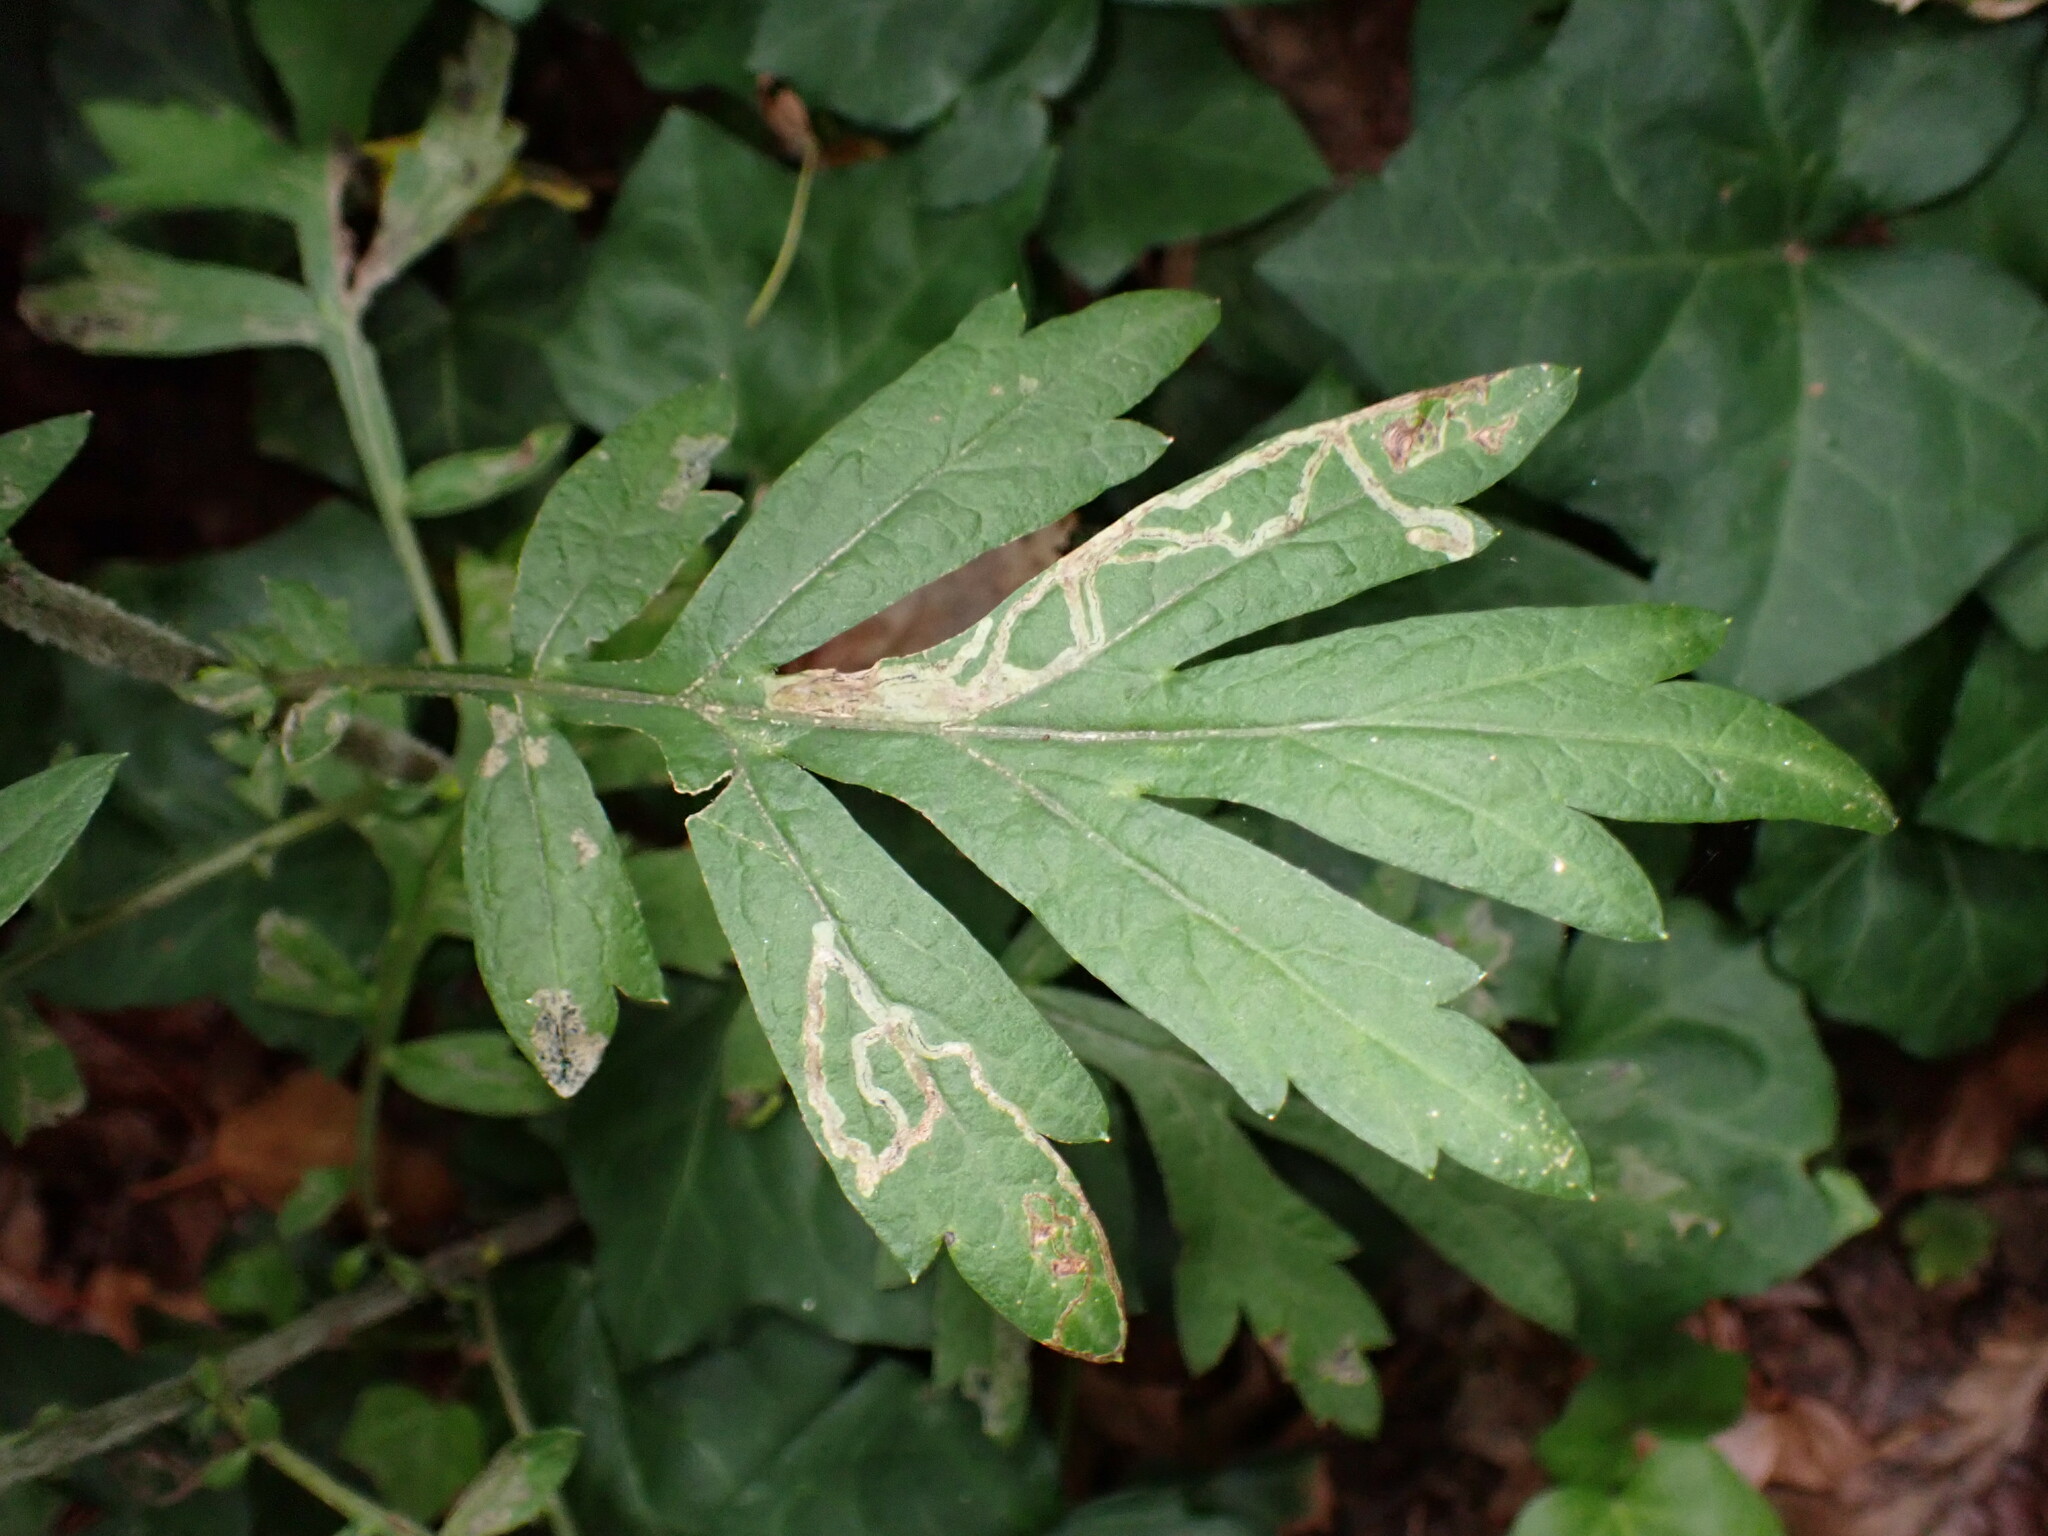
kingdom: Animalia
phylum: Arthropoda
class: Insecta
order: Diptera
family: Agromyzidae
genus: Liriomyza
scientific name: Liriomyza ptarmicae
